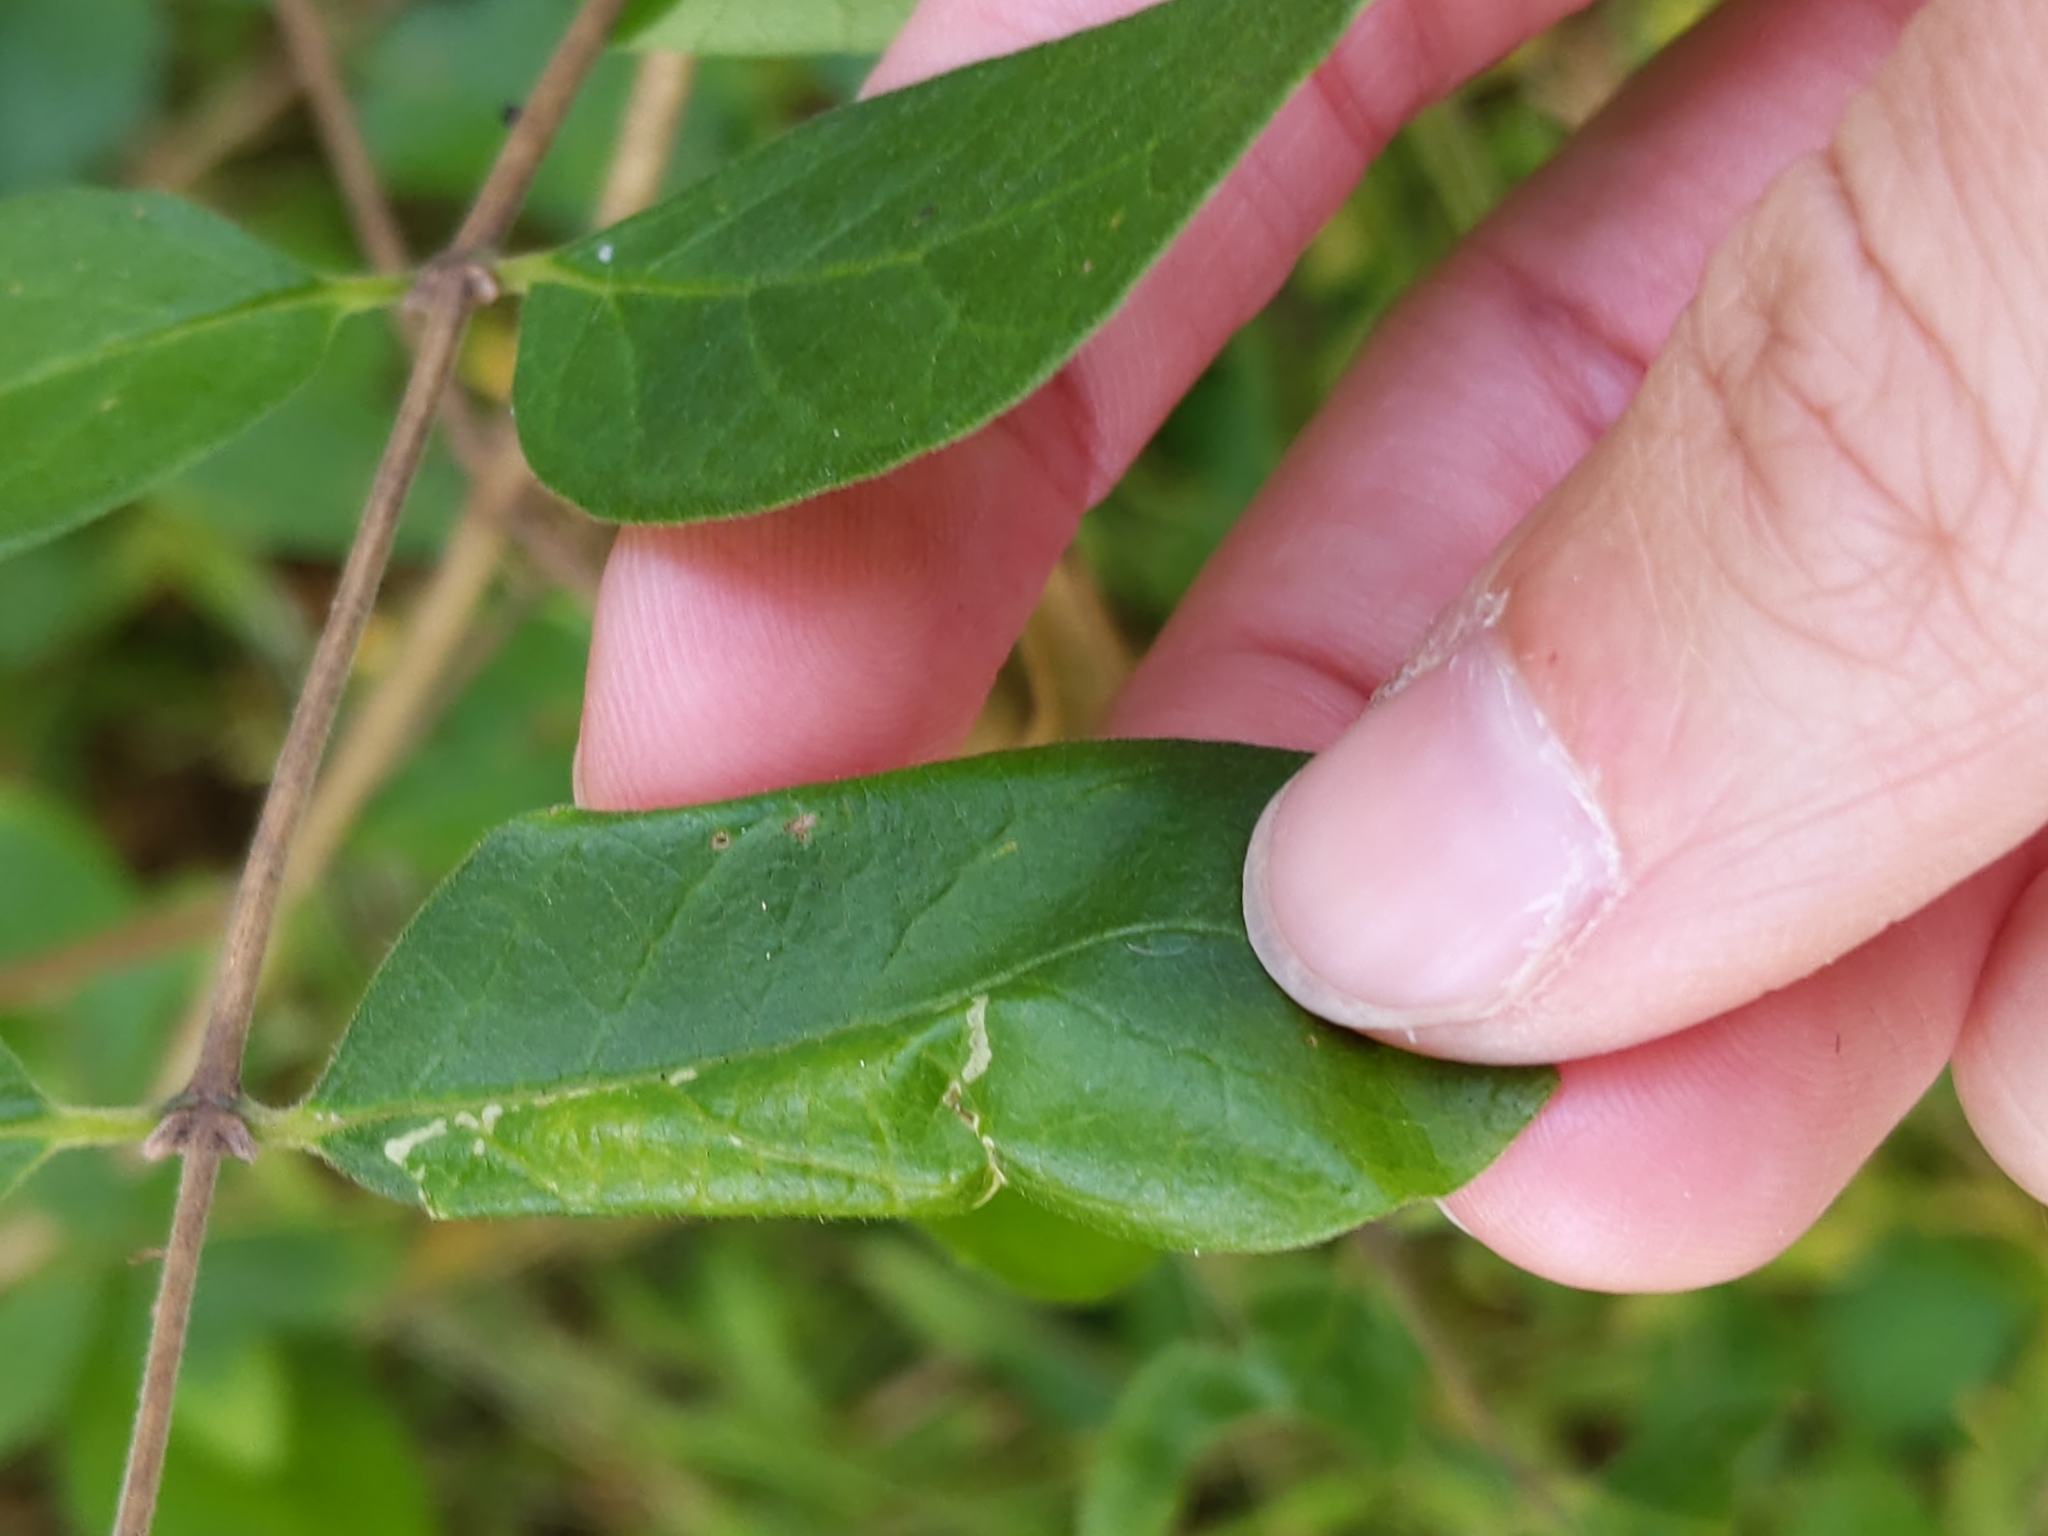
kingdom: Animalia
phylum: Arthropoda
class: Insecta
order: Lepidoptera
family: Gracillariidae
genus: Phyllonorycter
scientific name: Phyllonorycter
